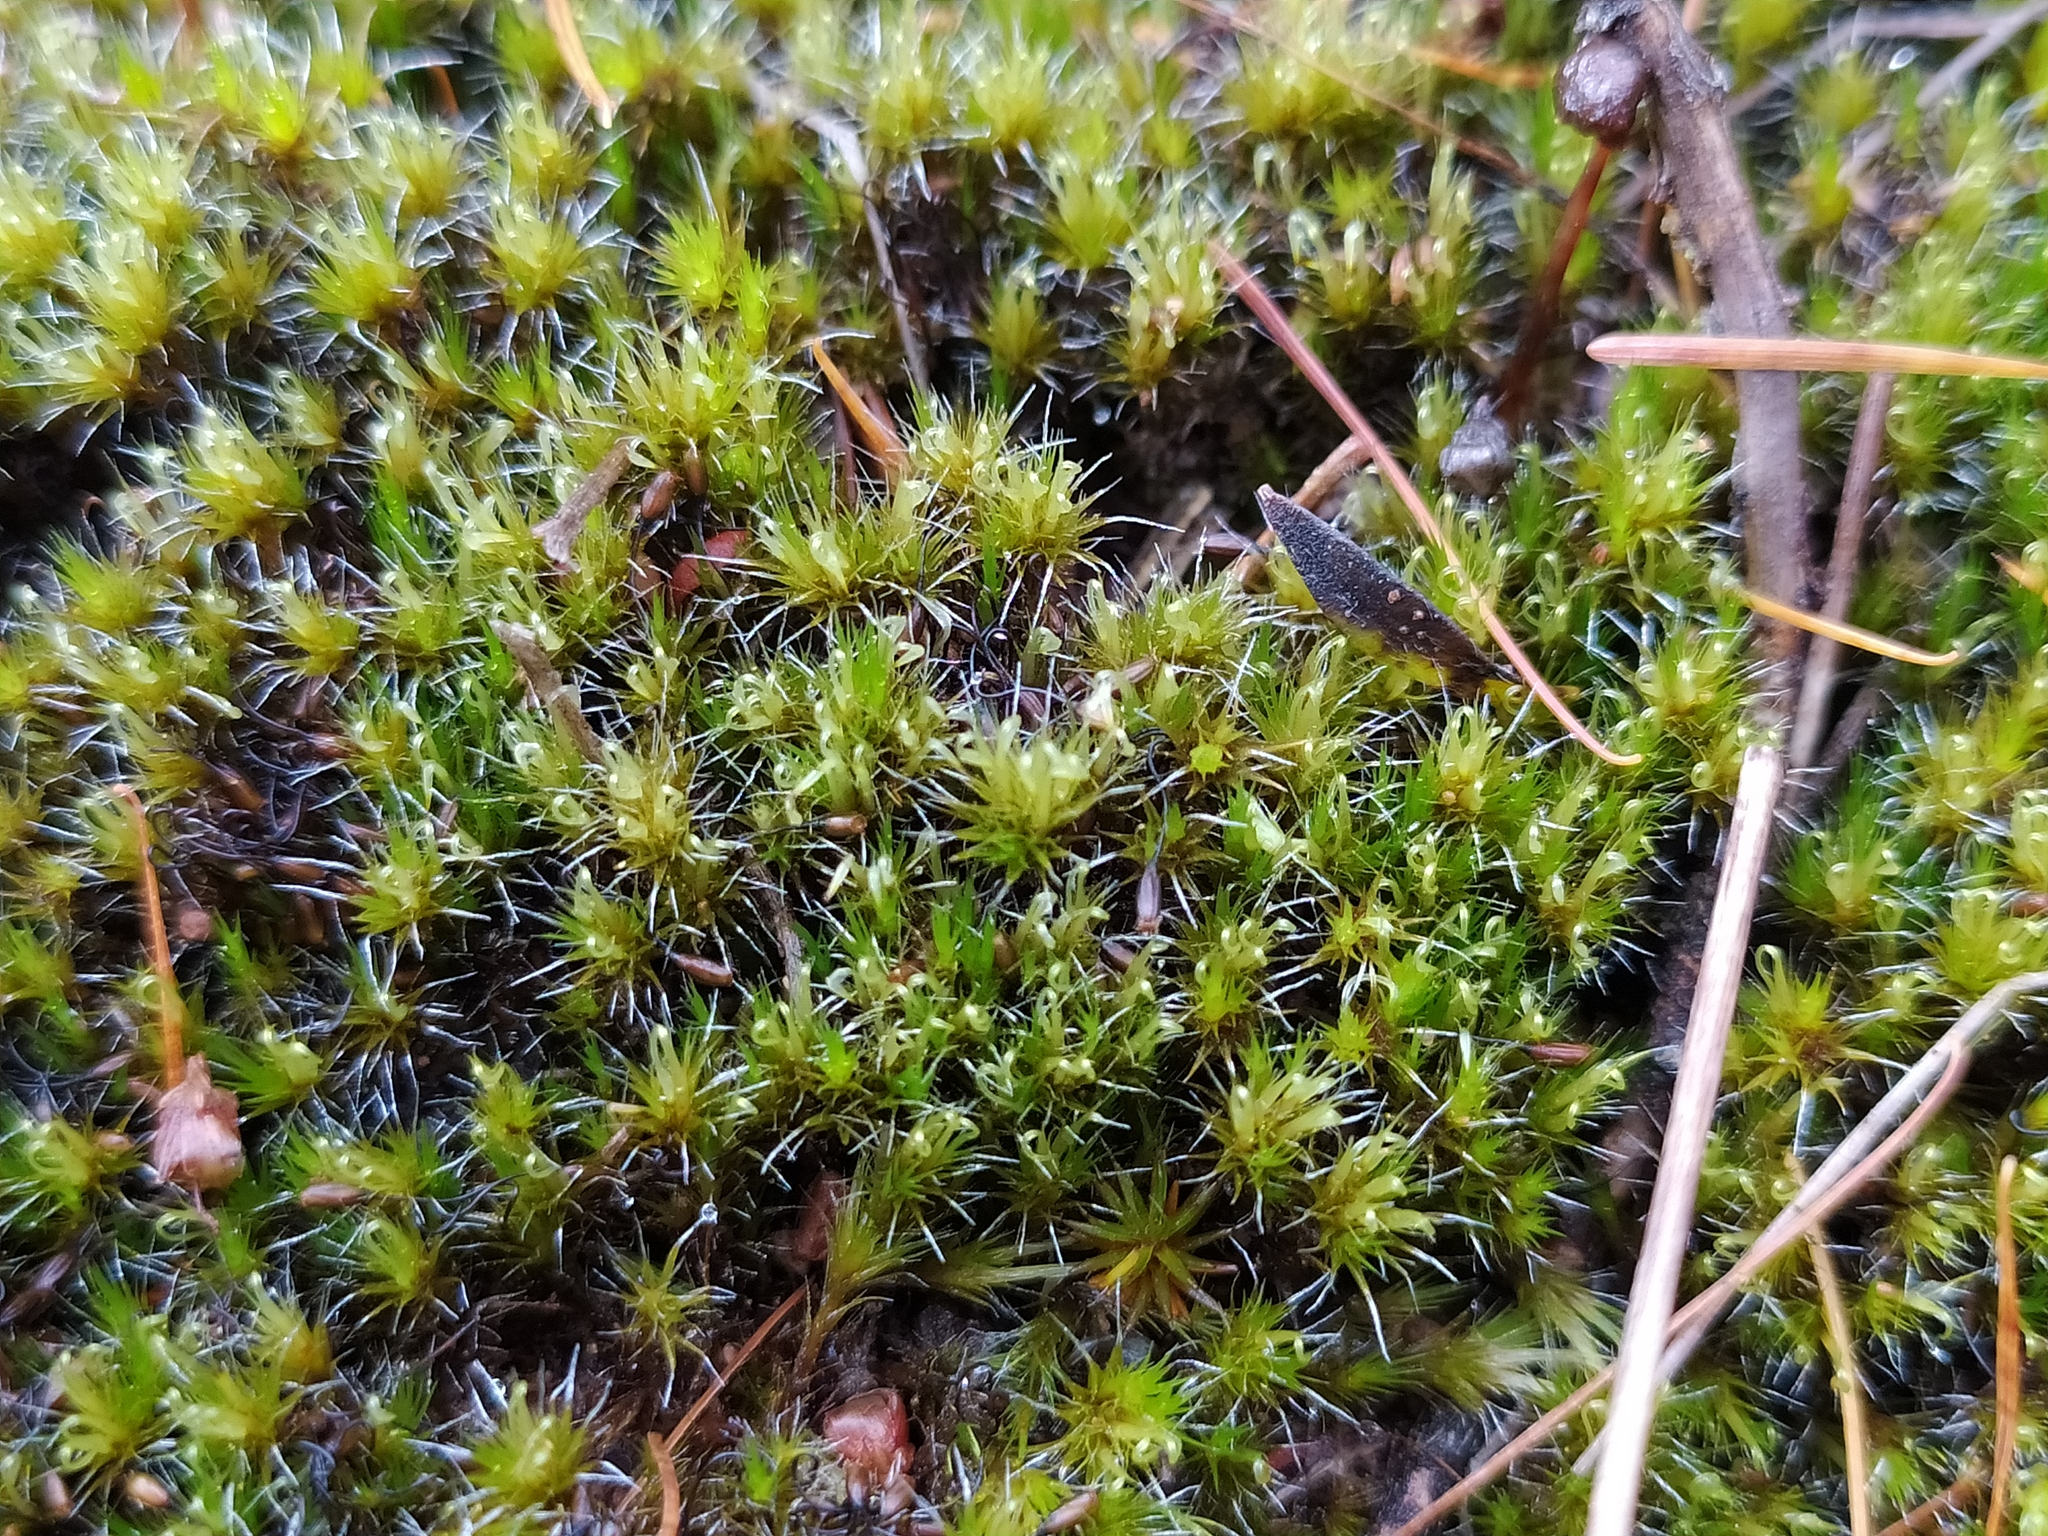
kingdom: Plantae
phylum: Bryophyta
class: Bryopsida
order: Dicranales
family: Leucobryaceae
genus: Campylopus
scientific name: Campylopus introflexus
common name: Heath star moss
